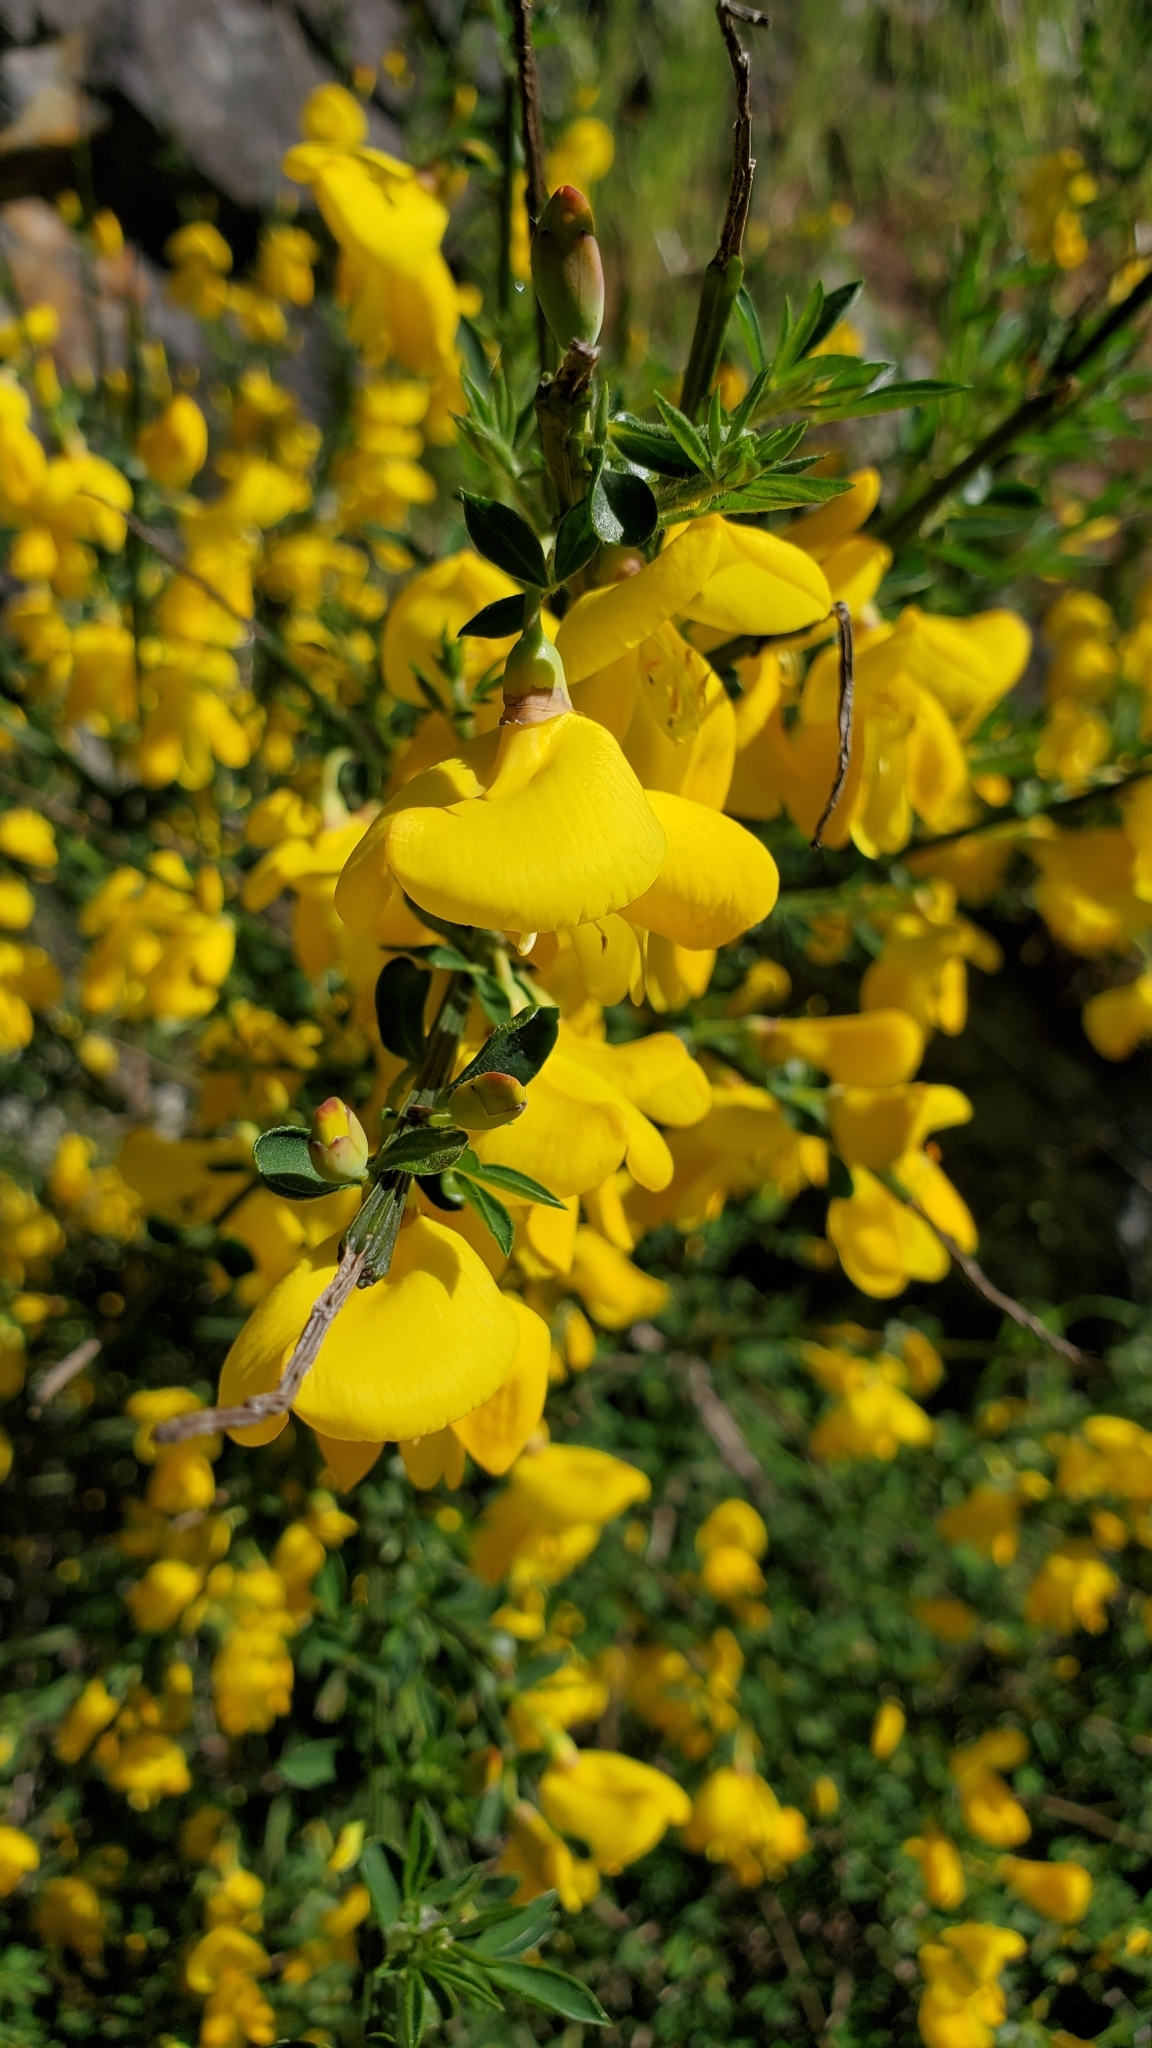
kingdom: Plantae
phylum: Tracheophyta
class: Magnoliopsida
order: Fabales
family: Fabaceae
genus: Cytisus
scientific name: Cytisus scoparius
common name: Scotch broom
